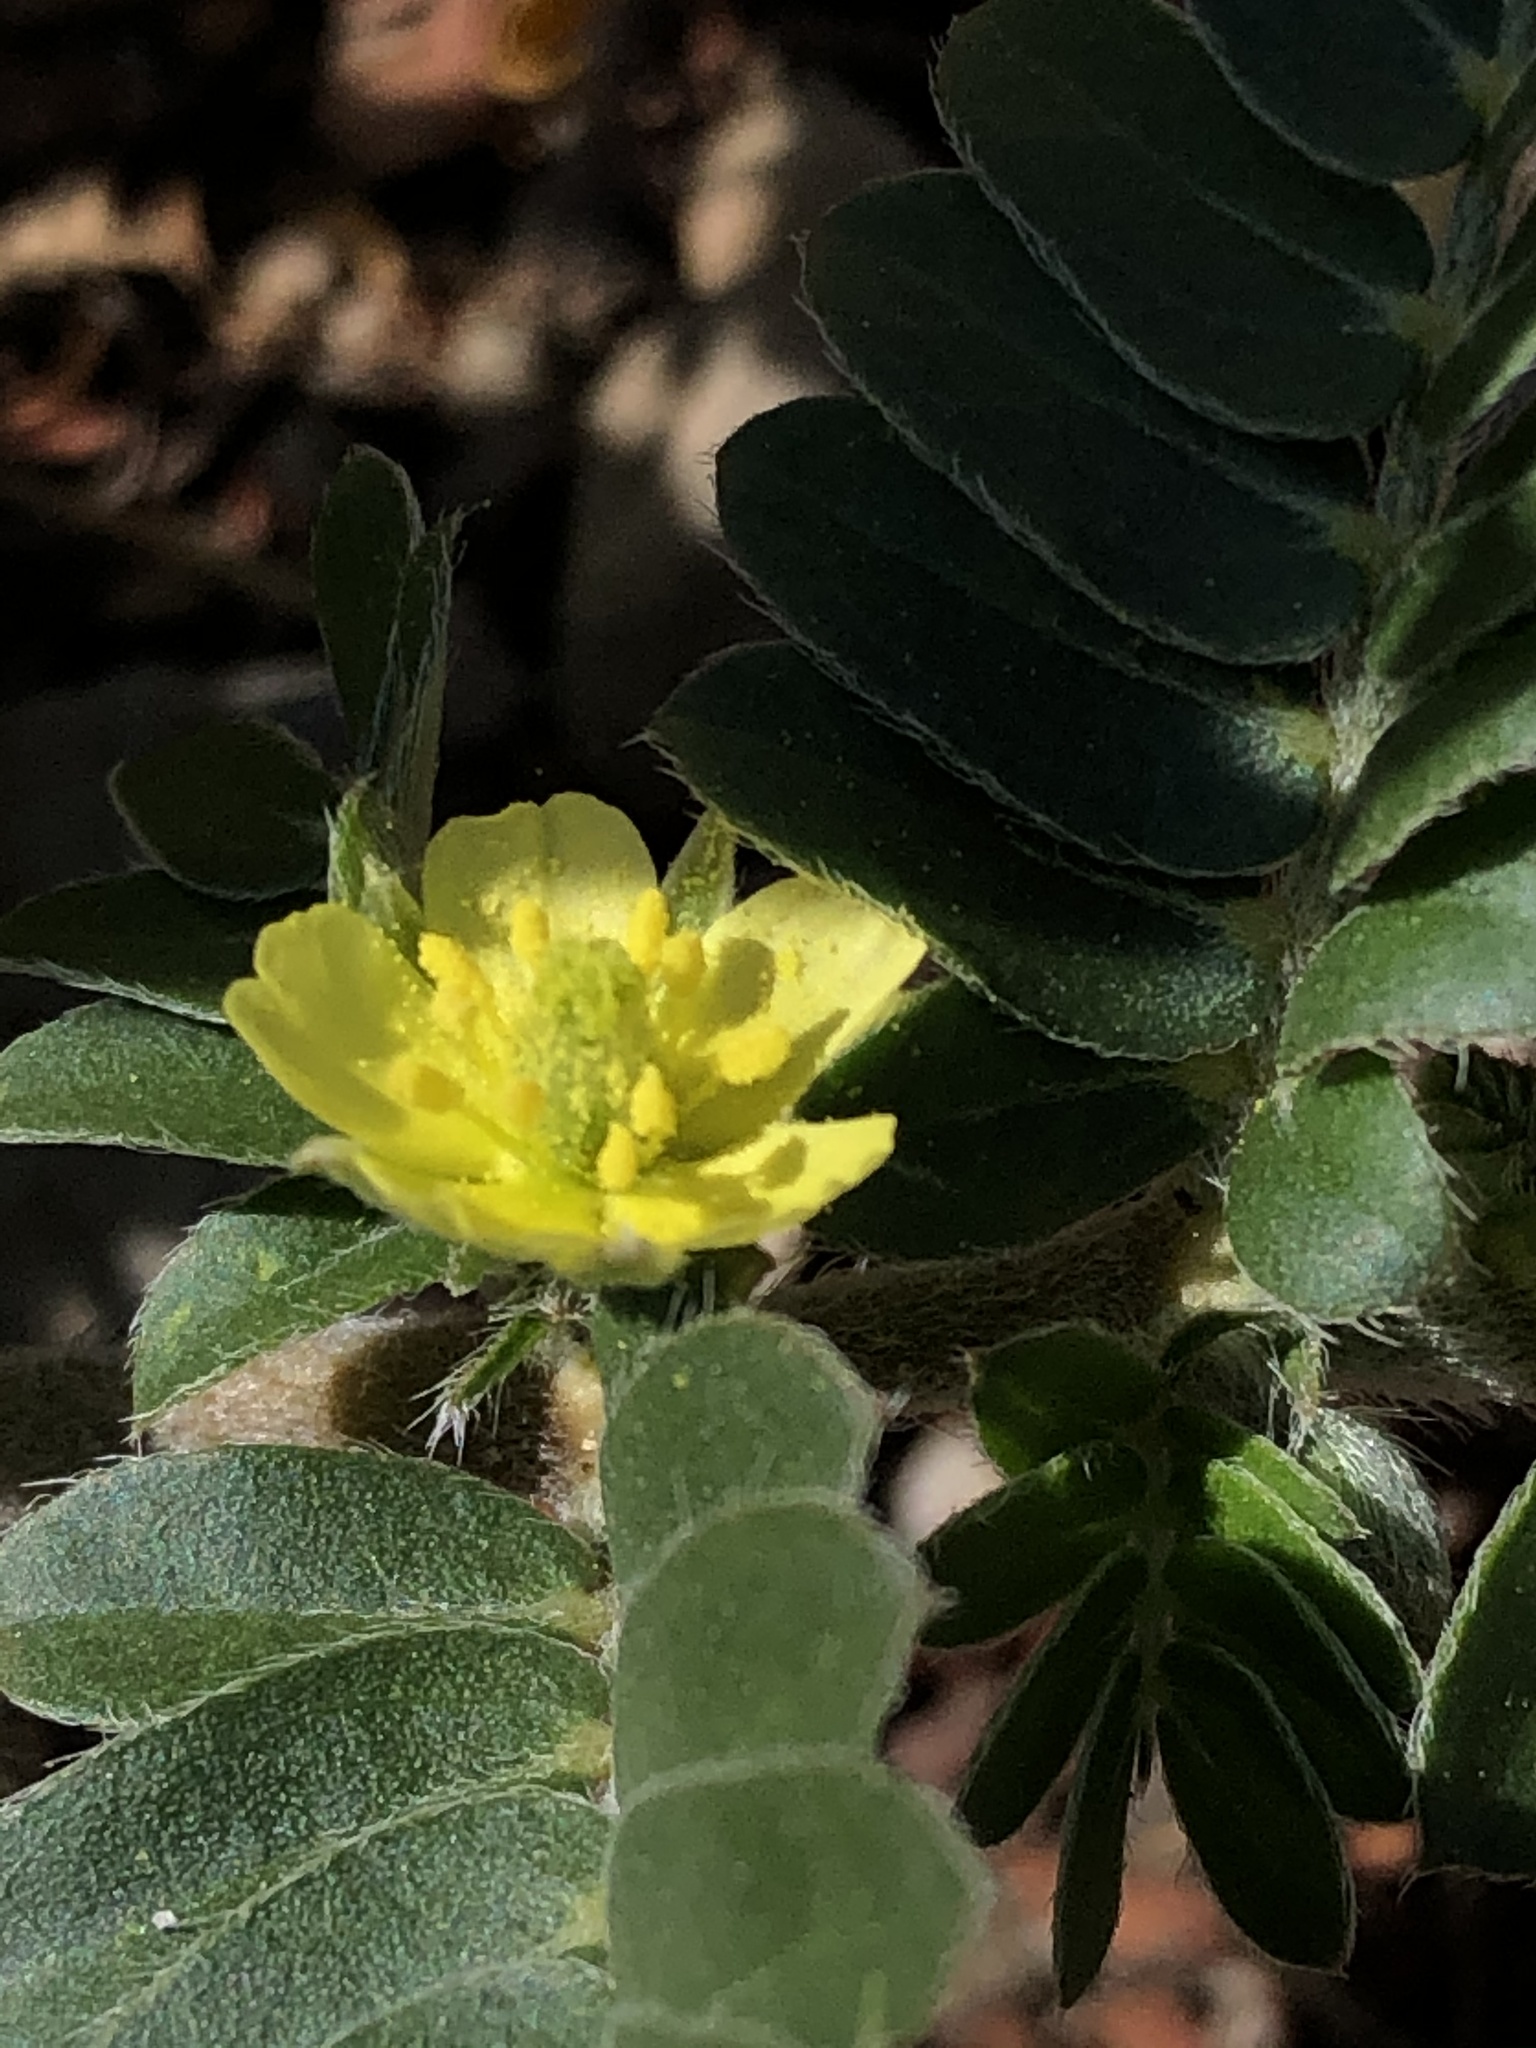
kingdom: Plantae
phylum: Tracheophyta
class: Magnoliopsida
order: Zygophyllales
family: Zygophyllaceae
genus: Tribulus
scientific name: Tribulus terrestris
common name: Puncturevine
